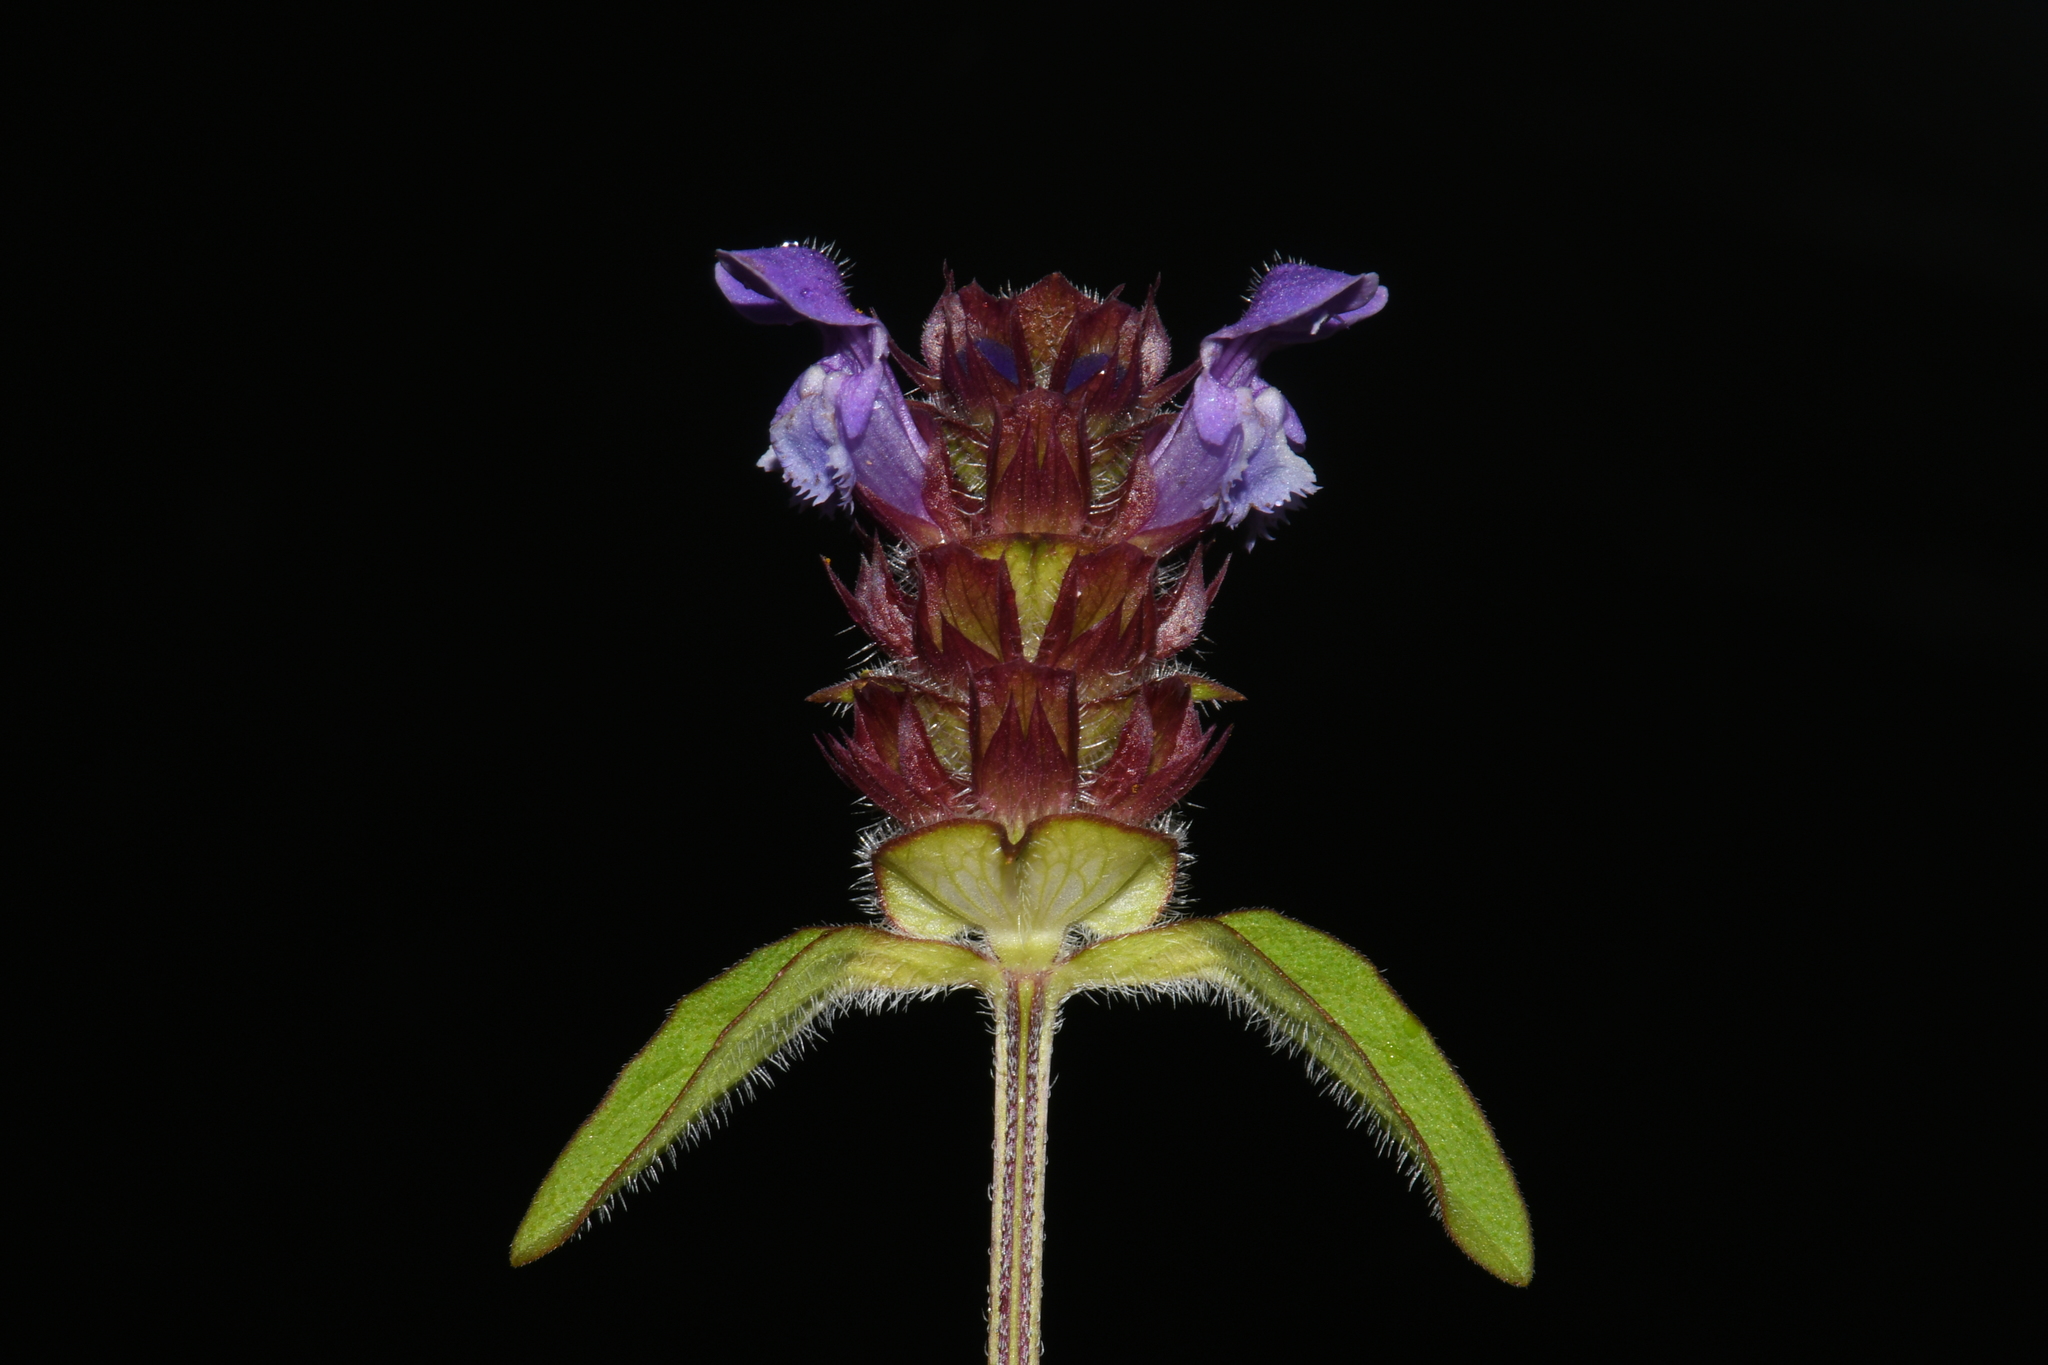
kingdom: Plantae
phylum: Tracheophyta
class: Magnoliopsida
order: Lamiales
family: Lamiaceae
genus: Prunella
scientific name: Prunella vulgaris
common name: Heal-all
